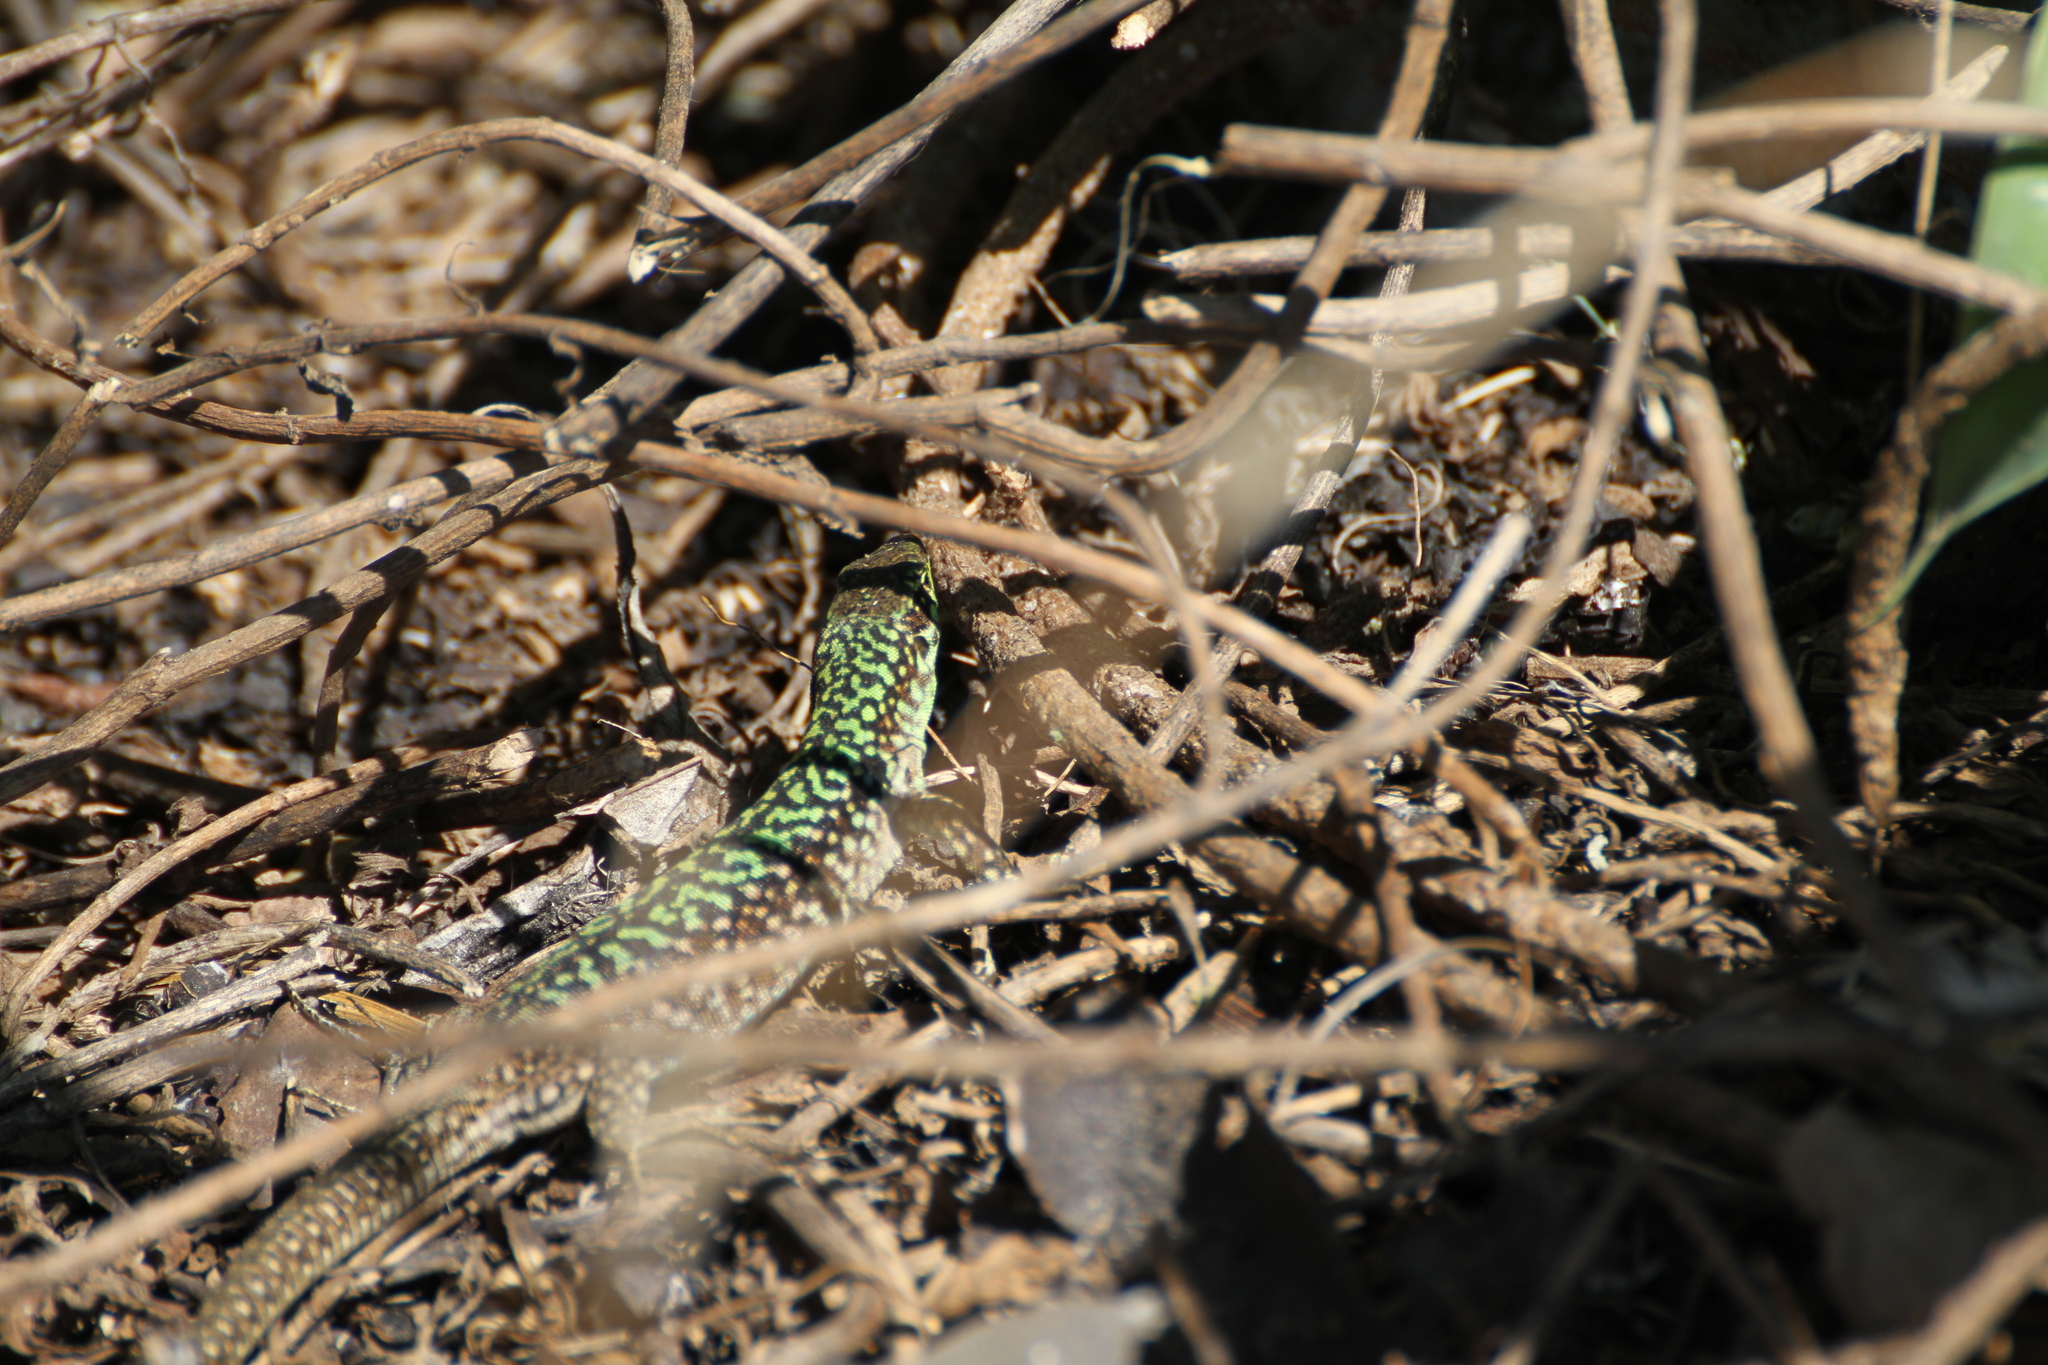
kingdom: Animalia
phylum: Chordata
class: Squamata
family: Lacertidae
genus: Podarcis
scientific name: Podarcis siculus
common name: Italian wall lizard
